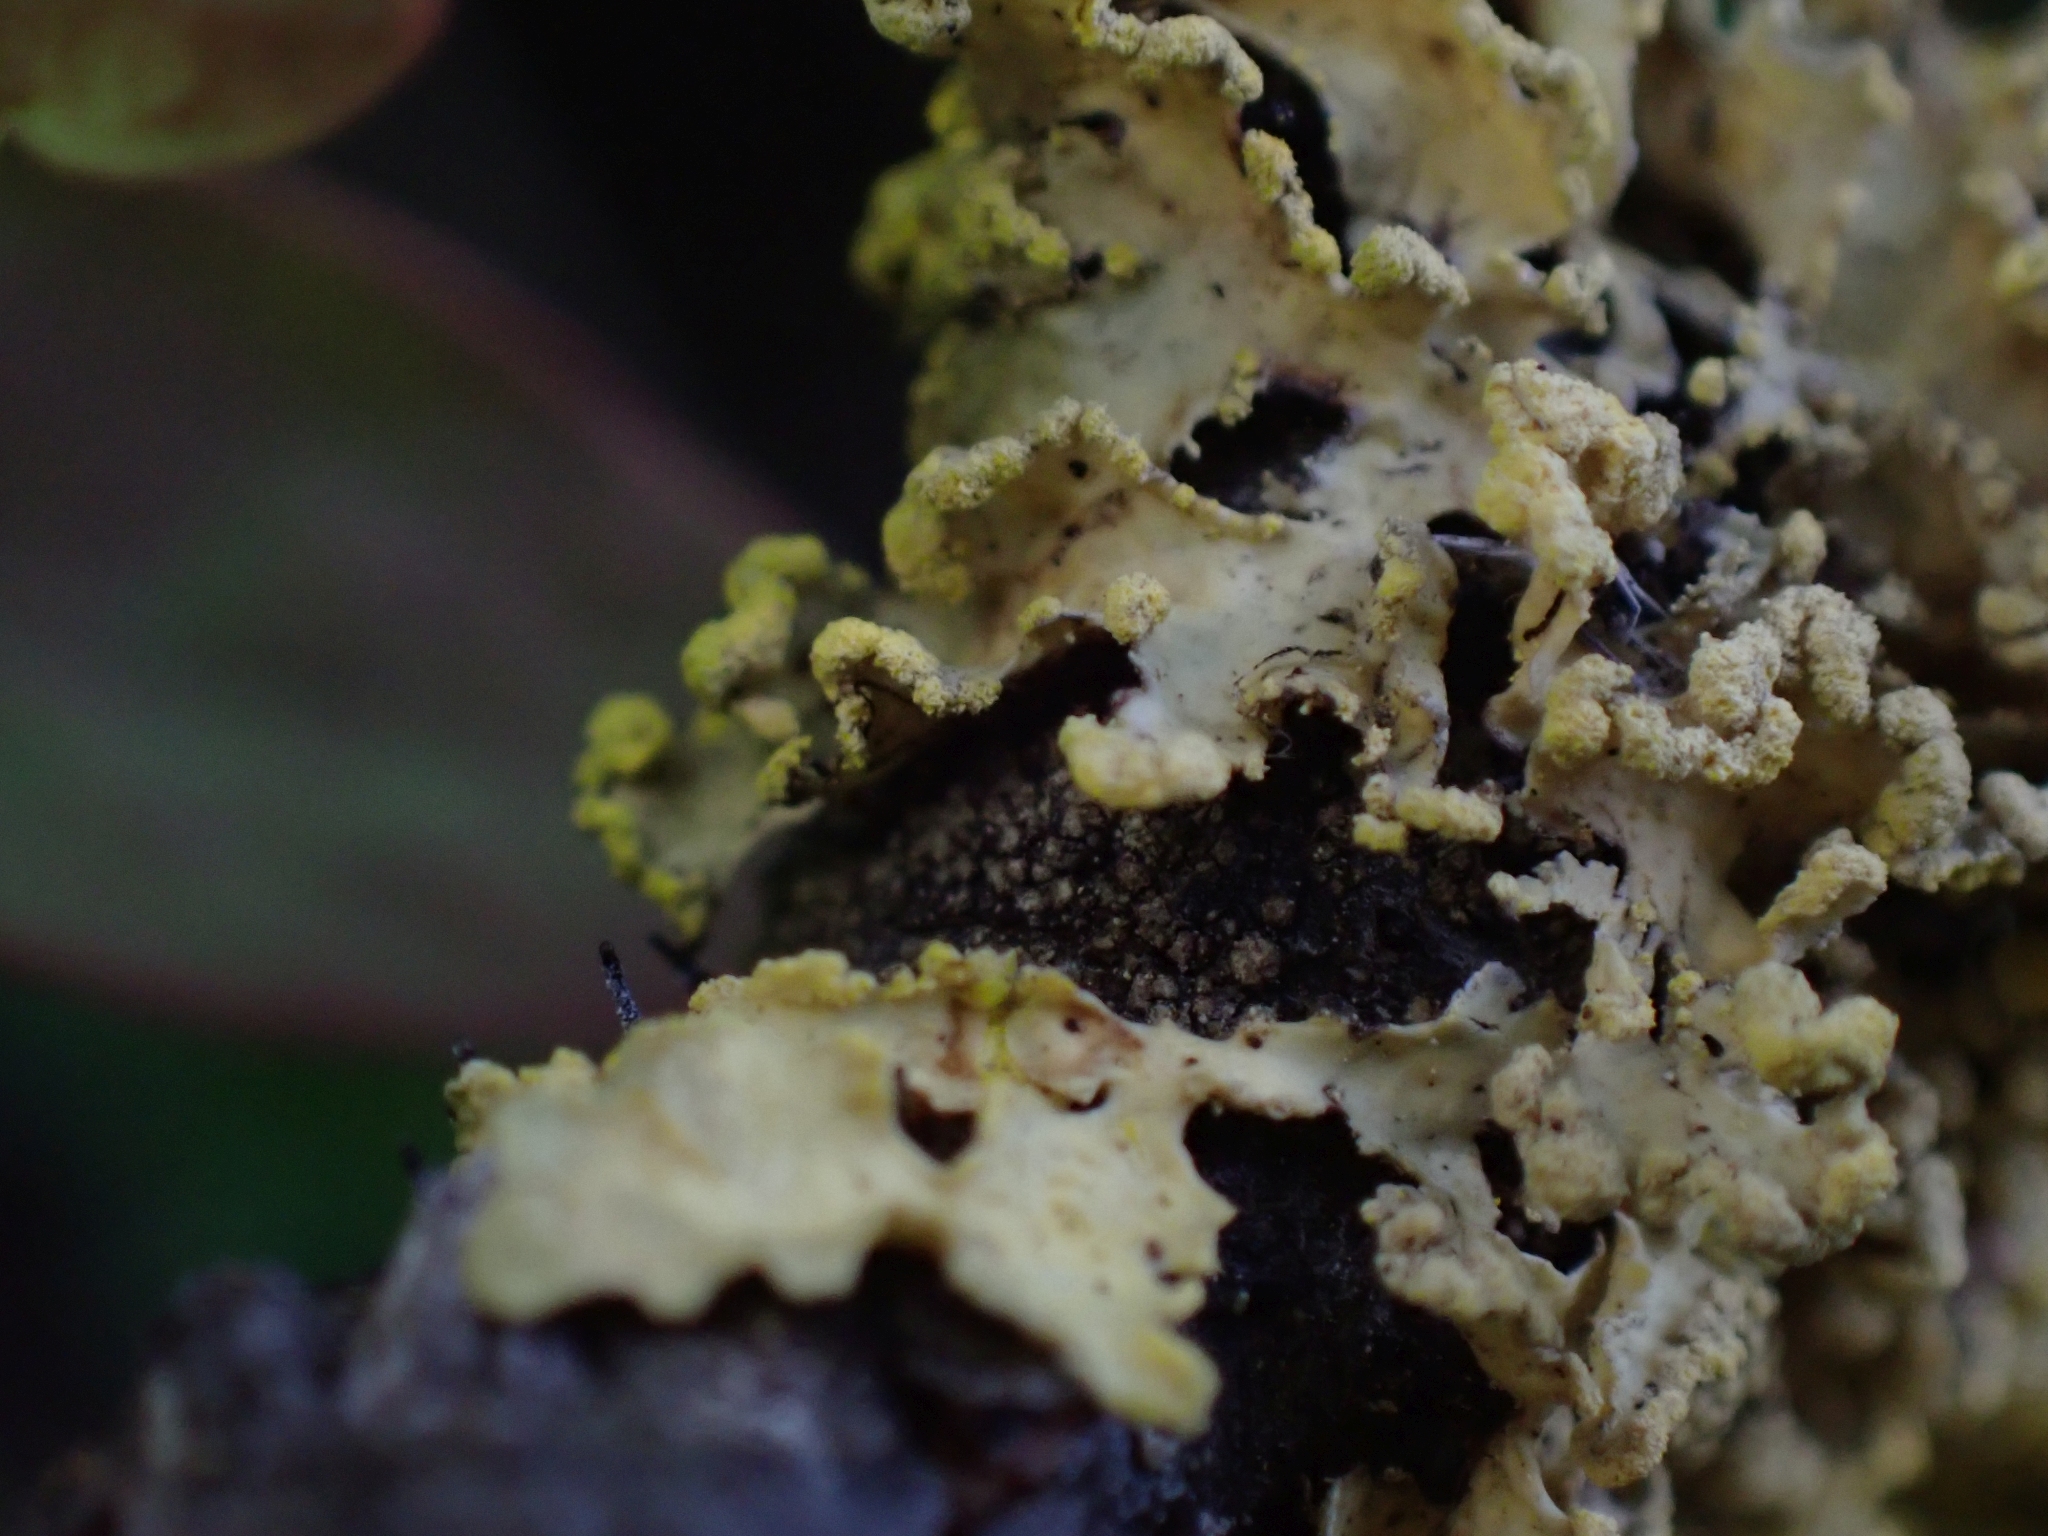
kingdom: Fungi
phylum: Ascomycota
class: Lecanoromycetes
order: Lecanorales
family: Parmeliaceae
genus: Vulpicida
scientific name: Vulpicida pinastri
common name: Powdered sunshine lichen
